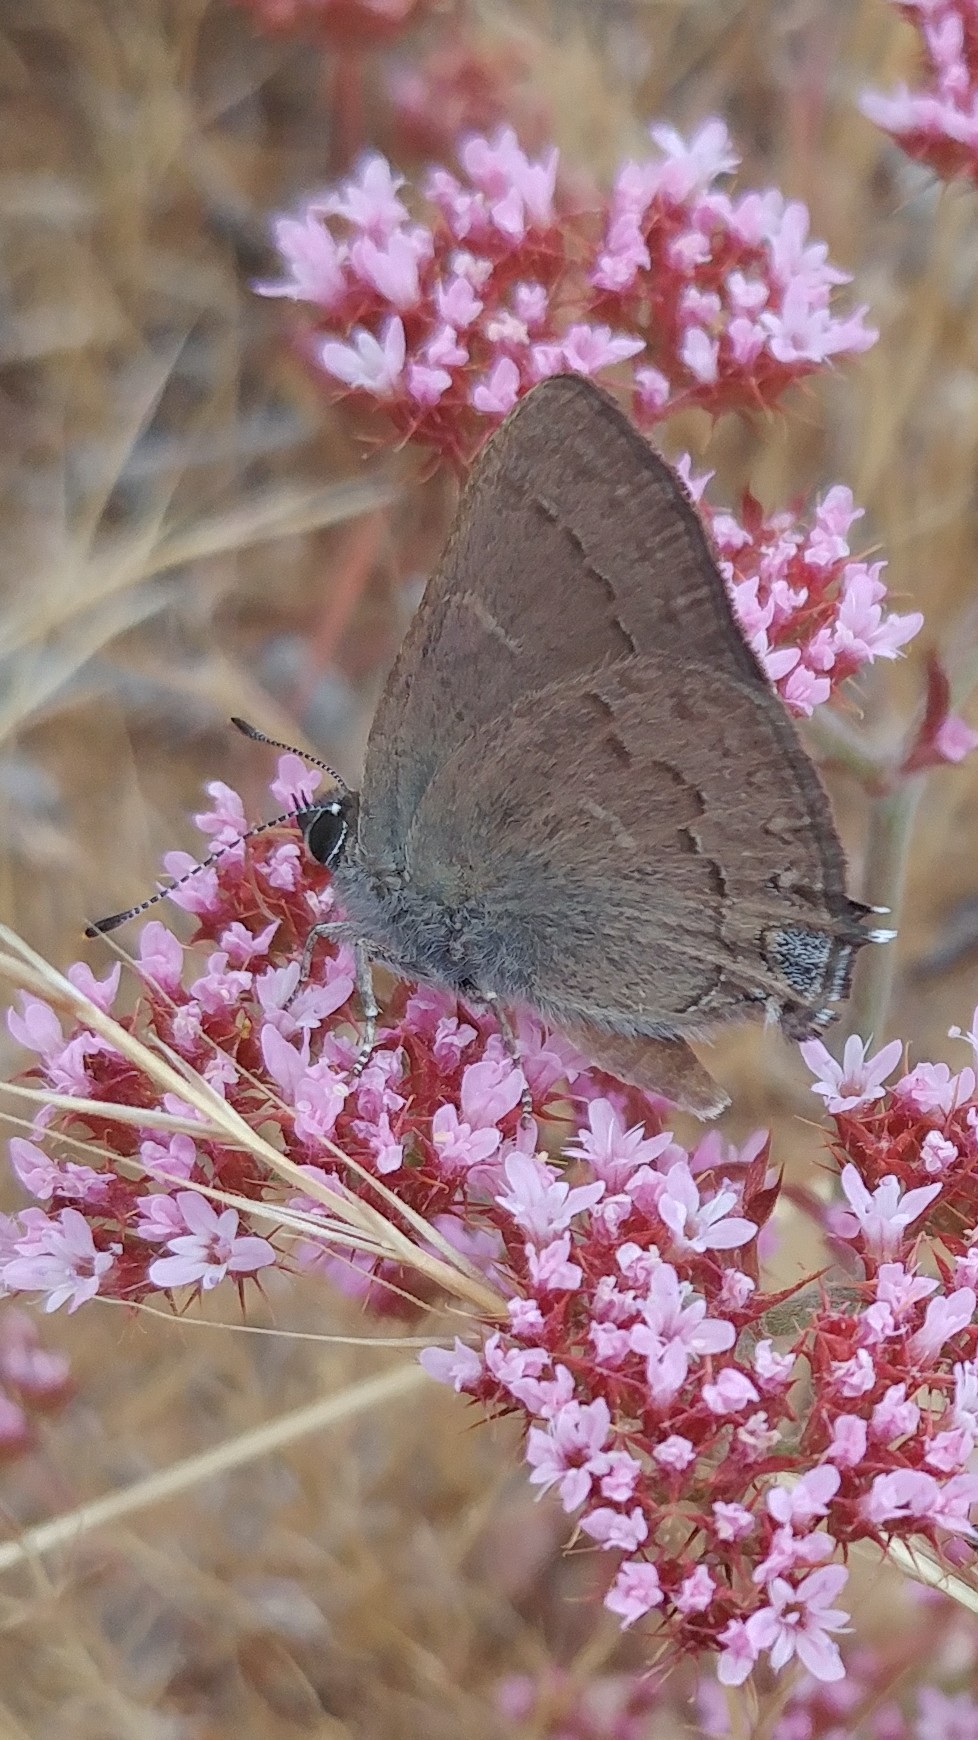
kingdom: Animalia
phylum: Arthropoda
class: Insecta
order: Lepidoptera
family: Lycaenidae
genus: Strymon
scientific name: Strymon saepium
